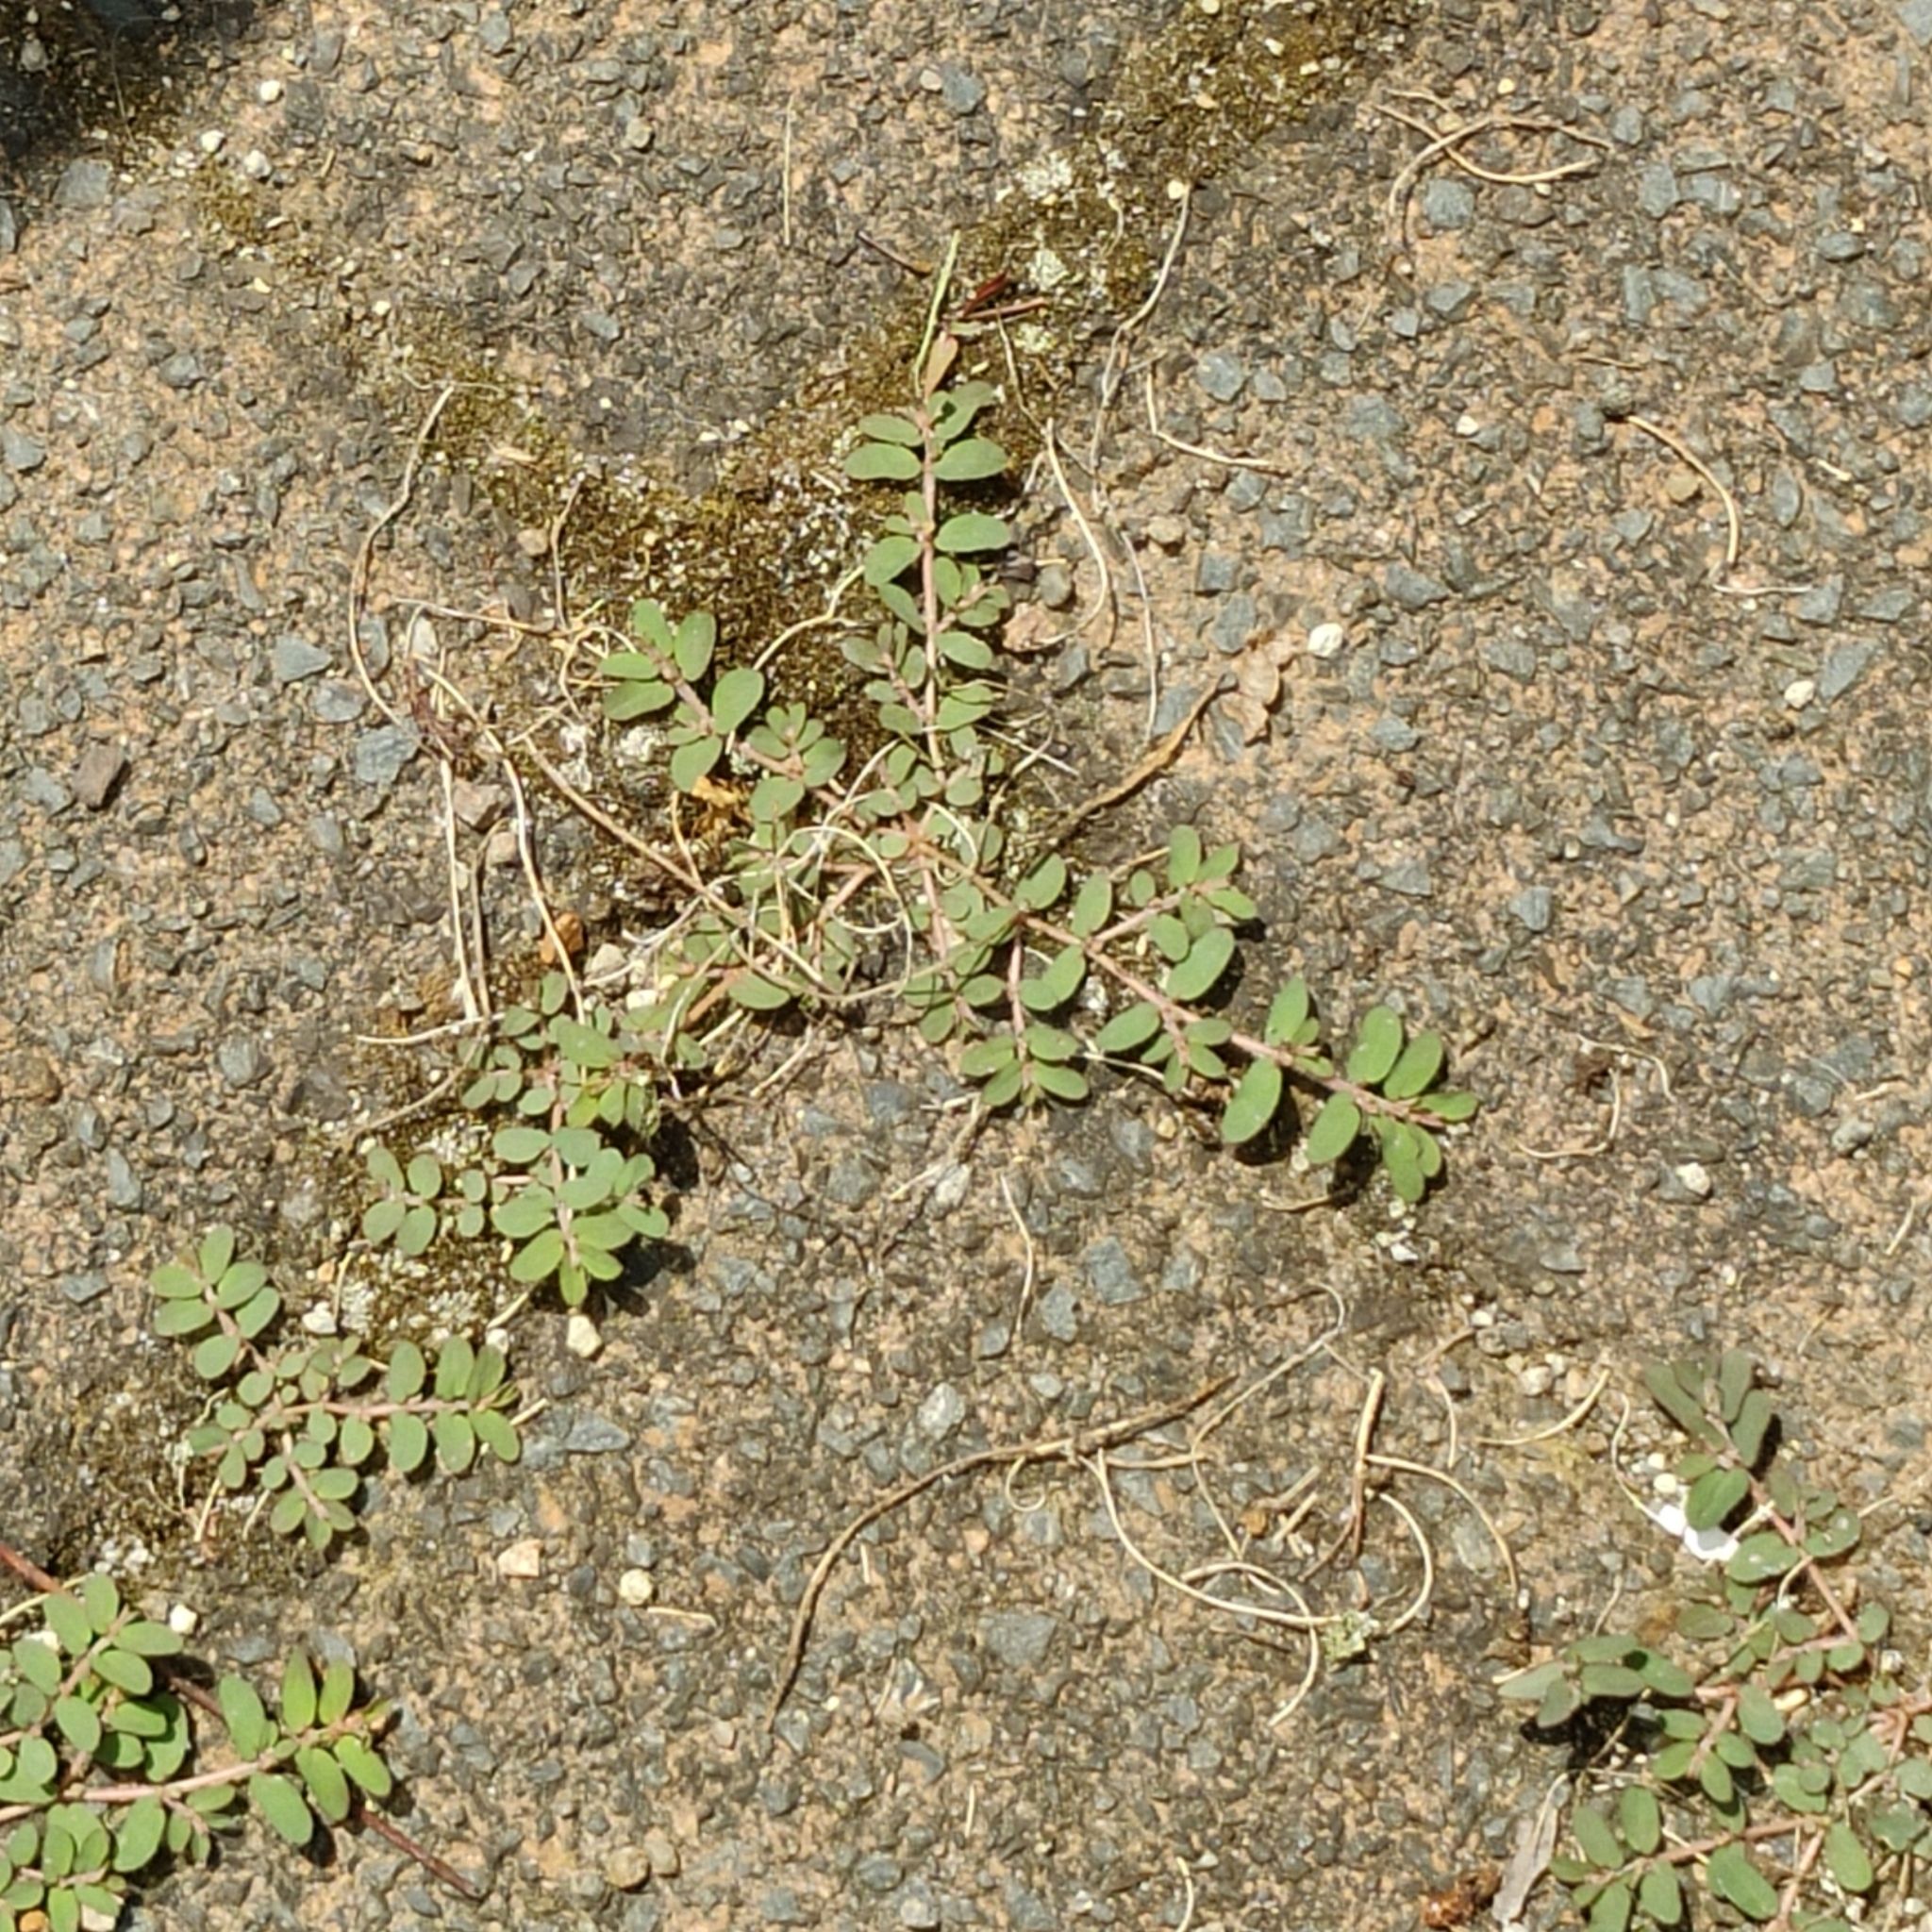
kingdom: Plantae
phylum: Tracheophyta
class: Magnoliopsida
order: Malpighiales
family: Euphorbiaceae
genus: Euphorbia
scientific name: Euphorbia maculata
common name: Spotted spurge
